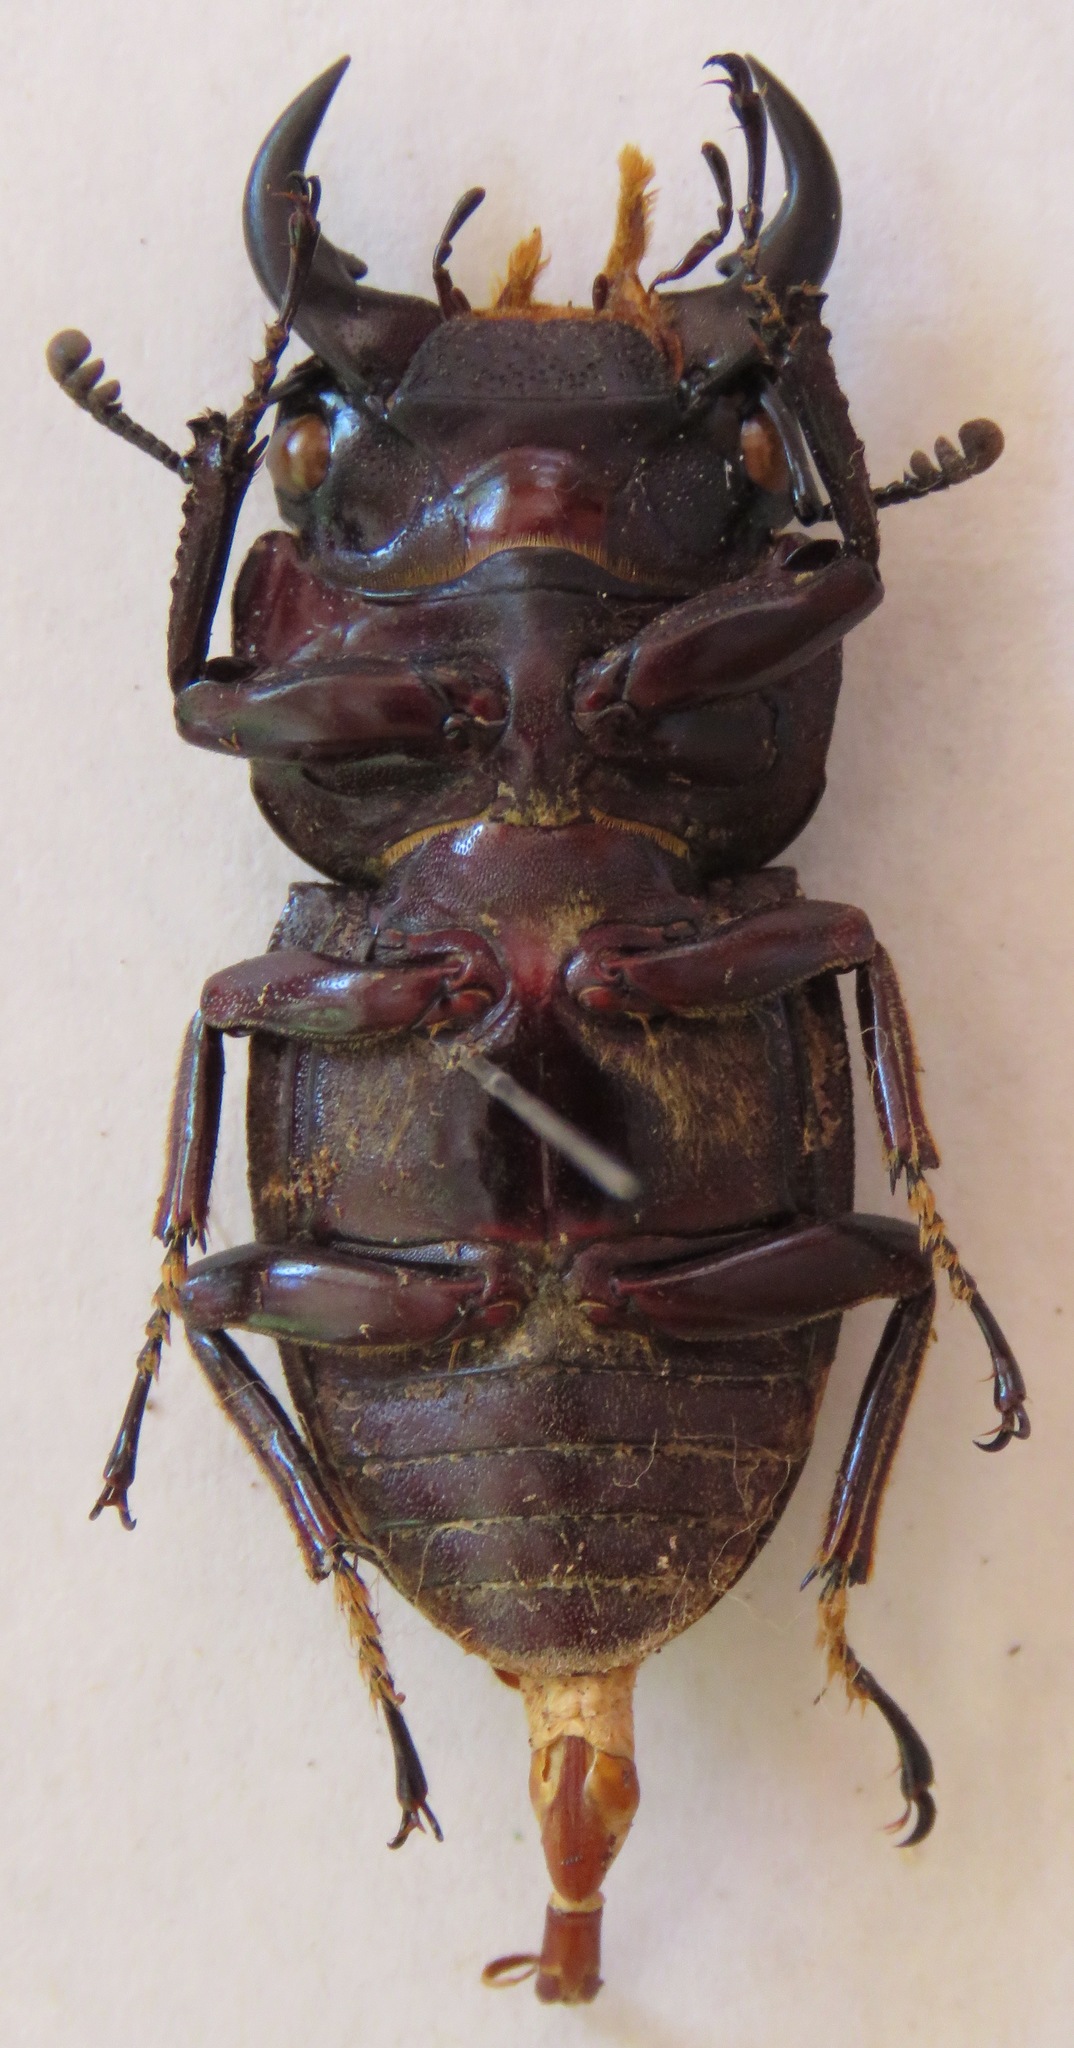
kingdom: Animalia
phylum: Arthropoda
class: Insecta
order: Coleoptera
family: Lucanidae
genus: Dorcus
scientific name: Dorcus ritsemae
